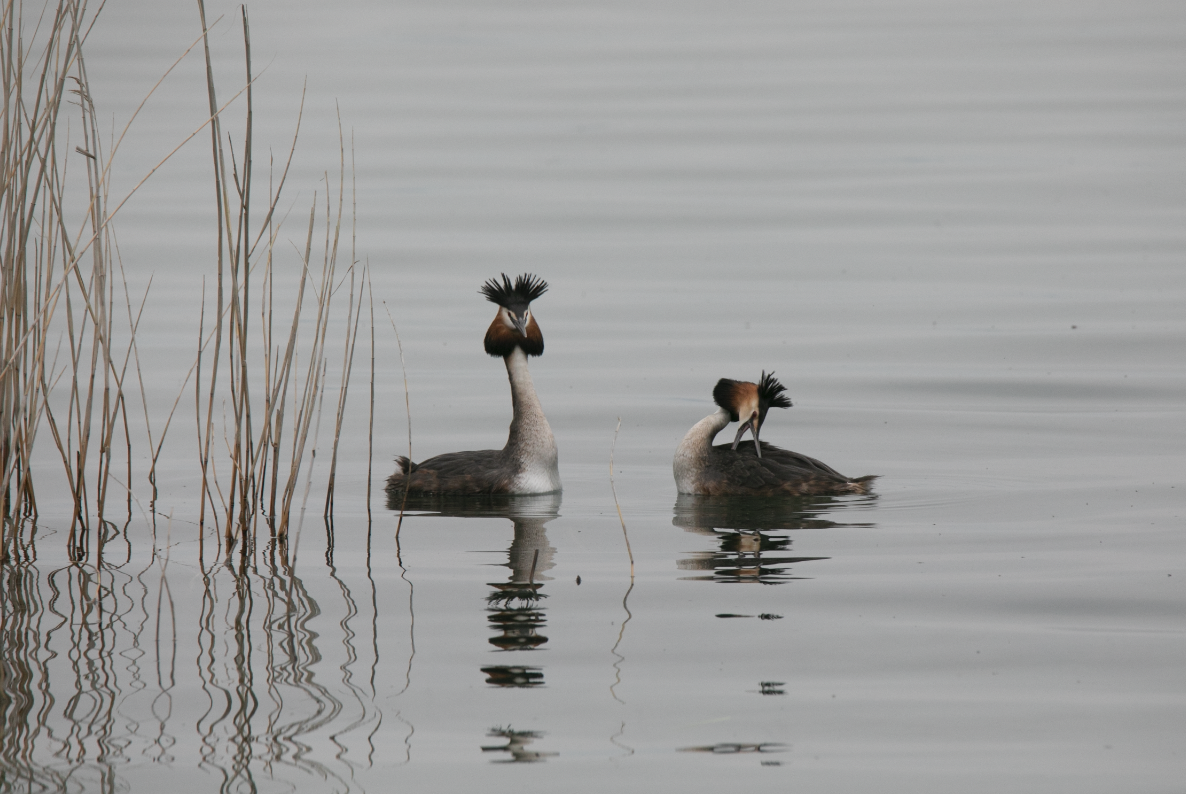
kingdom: Animalia
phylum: Chordata
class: Aves
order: Podicipediformes
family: Podicipedidae
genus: Podiceps
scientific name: Podiceps cristatus
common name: Great crested grebe
